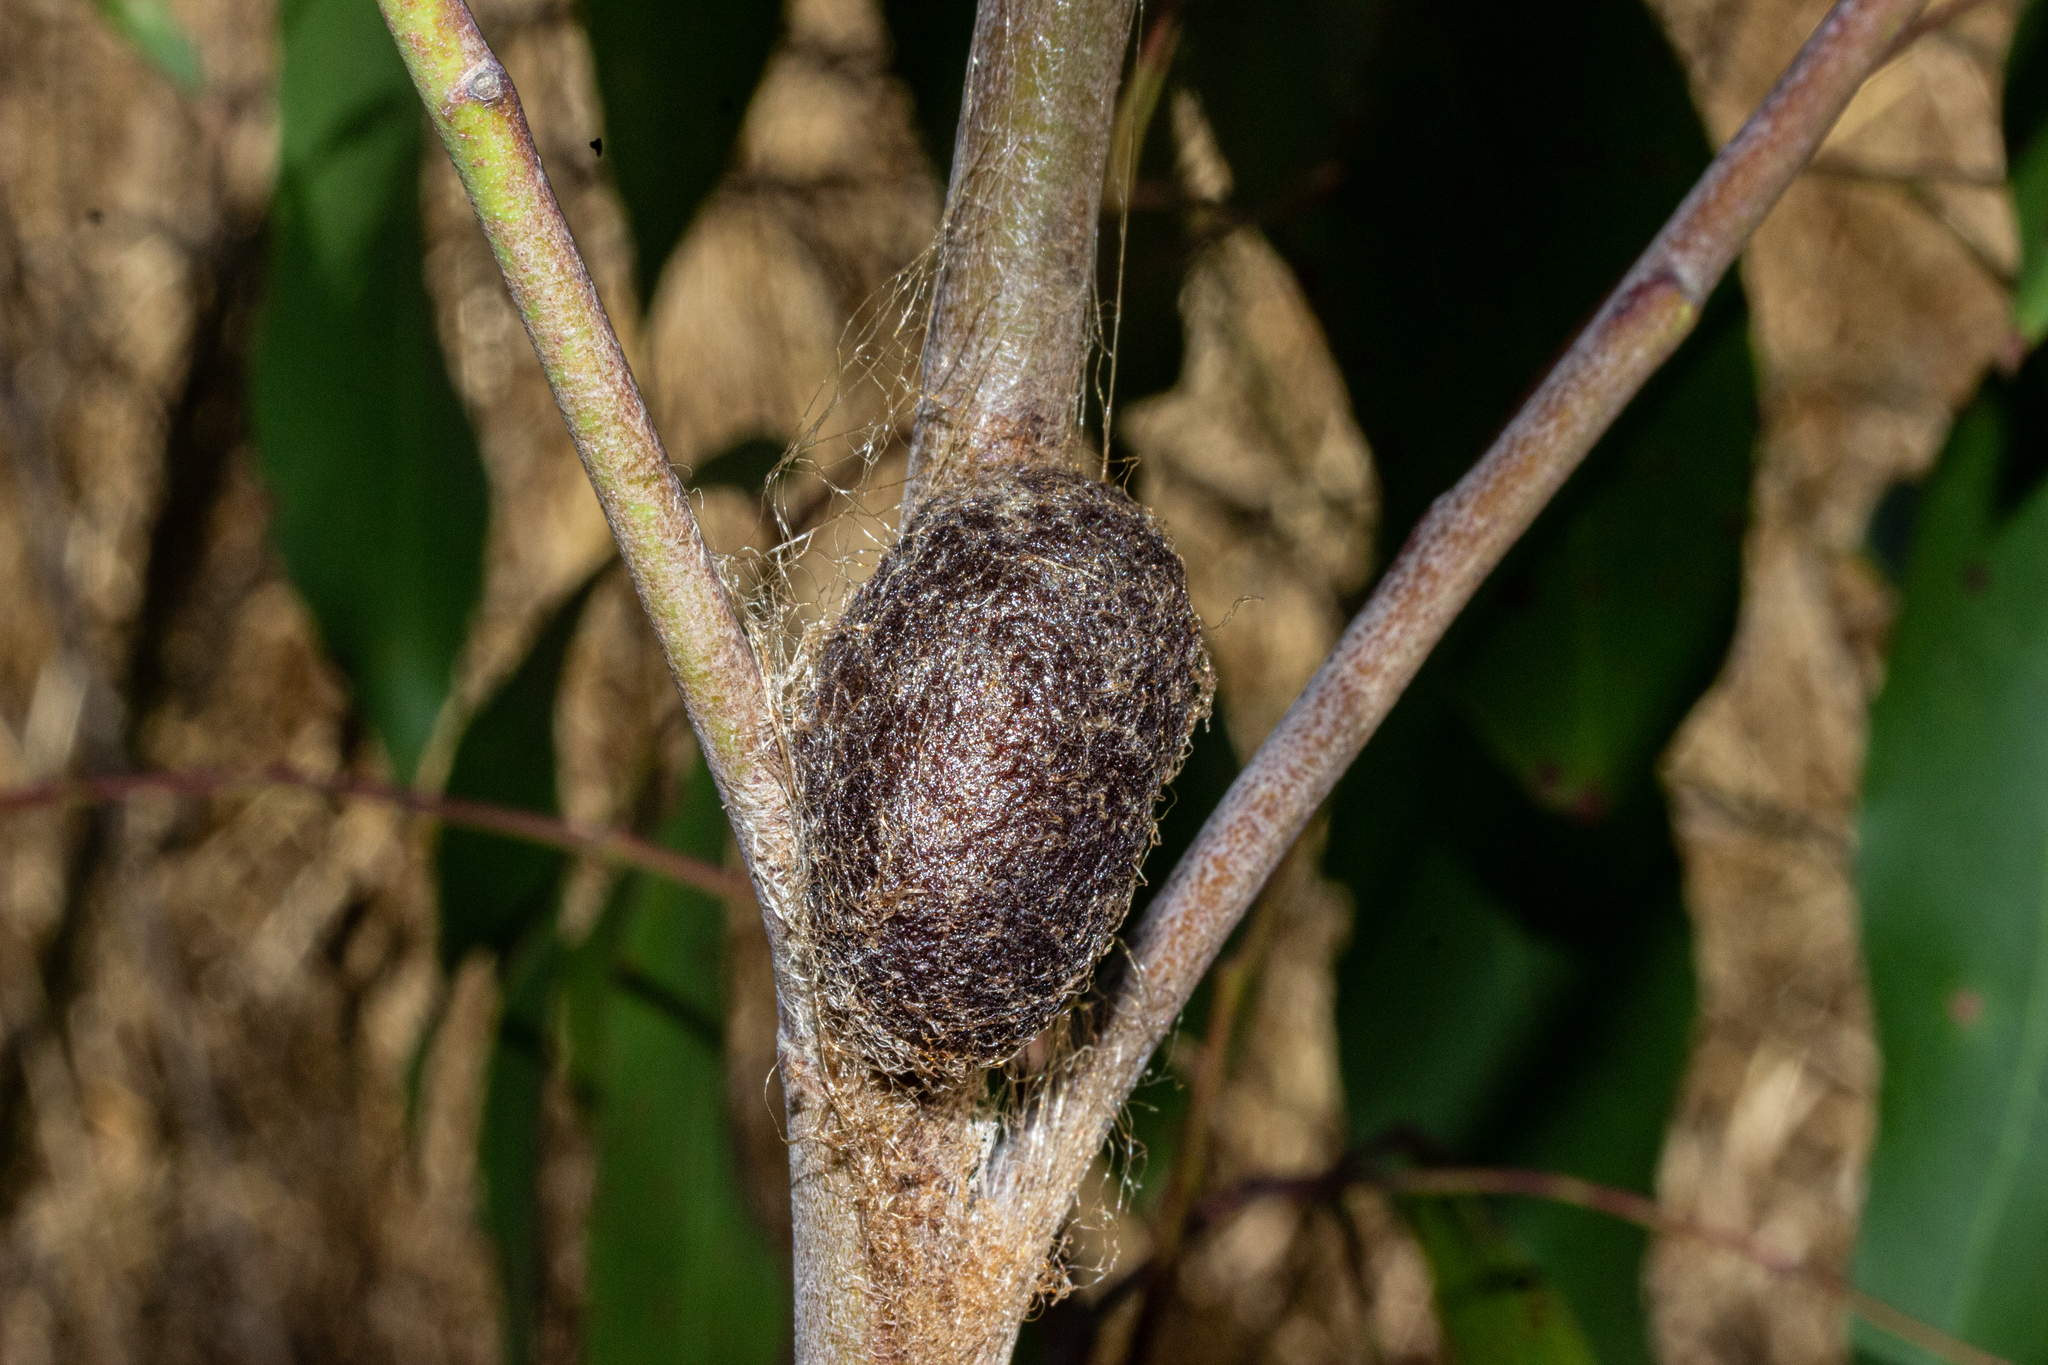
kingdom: Animalia
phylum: Arthropoda
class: Insecta
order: Lepidoptera
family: Saturniidae
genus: Opodiphthera
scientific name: Opodiphthera
